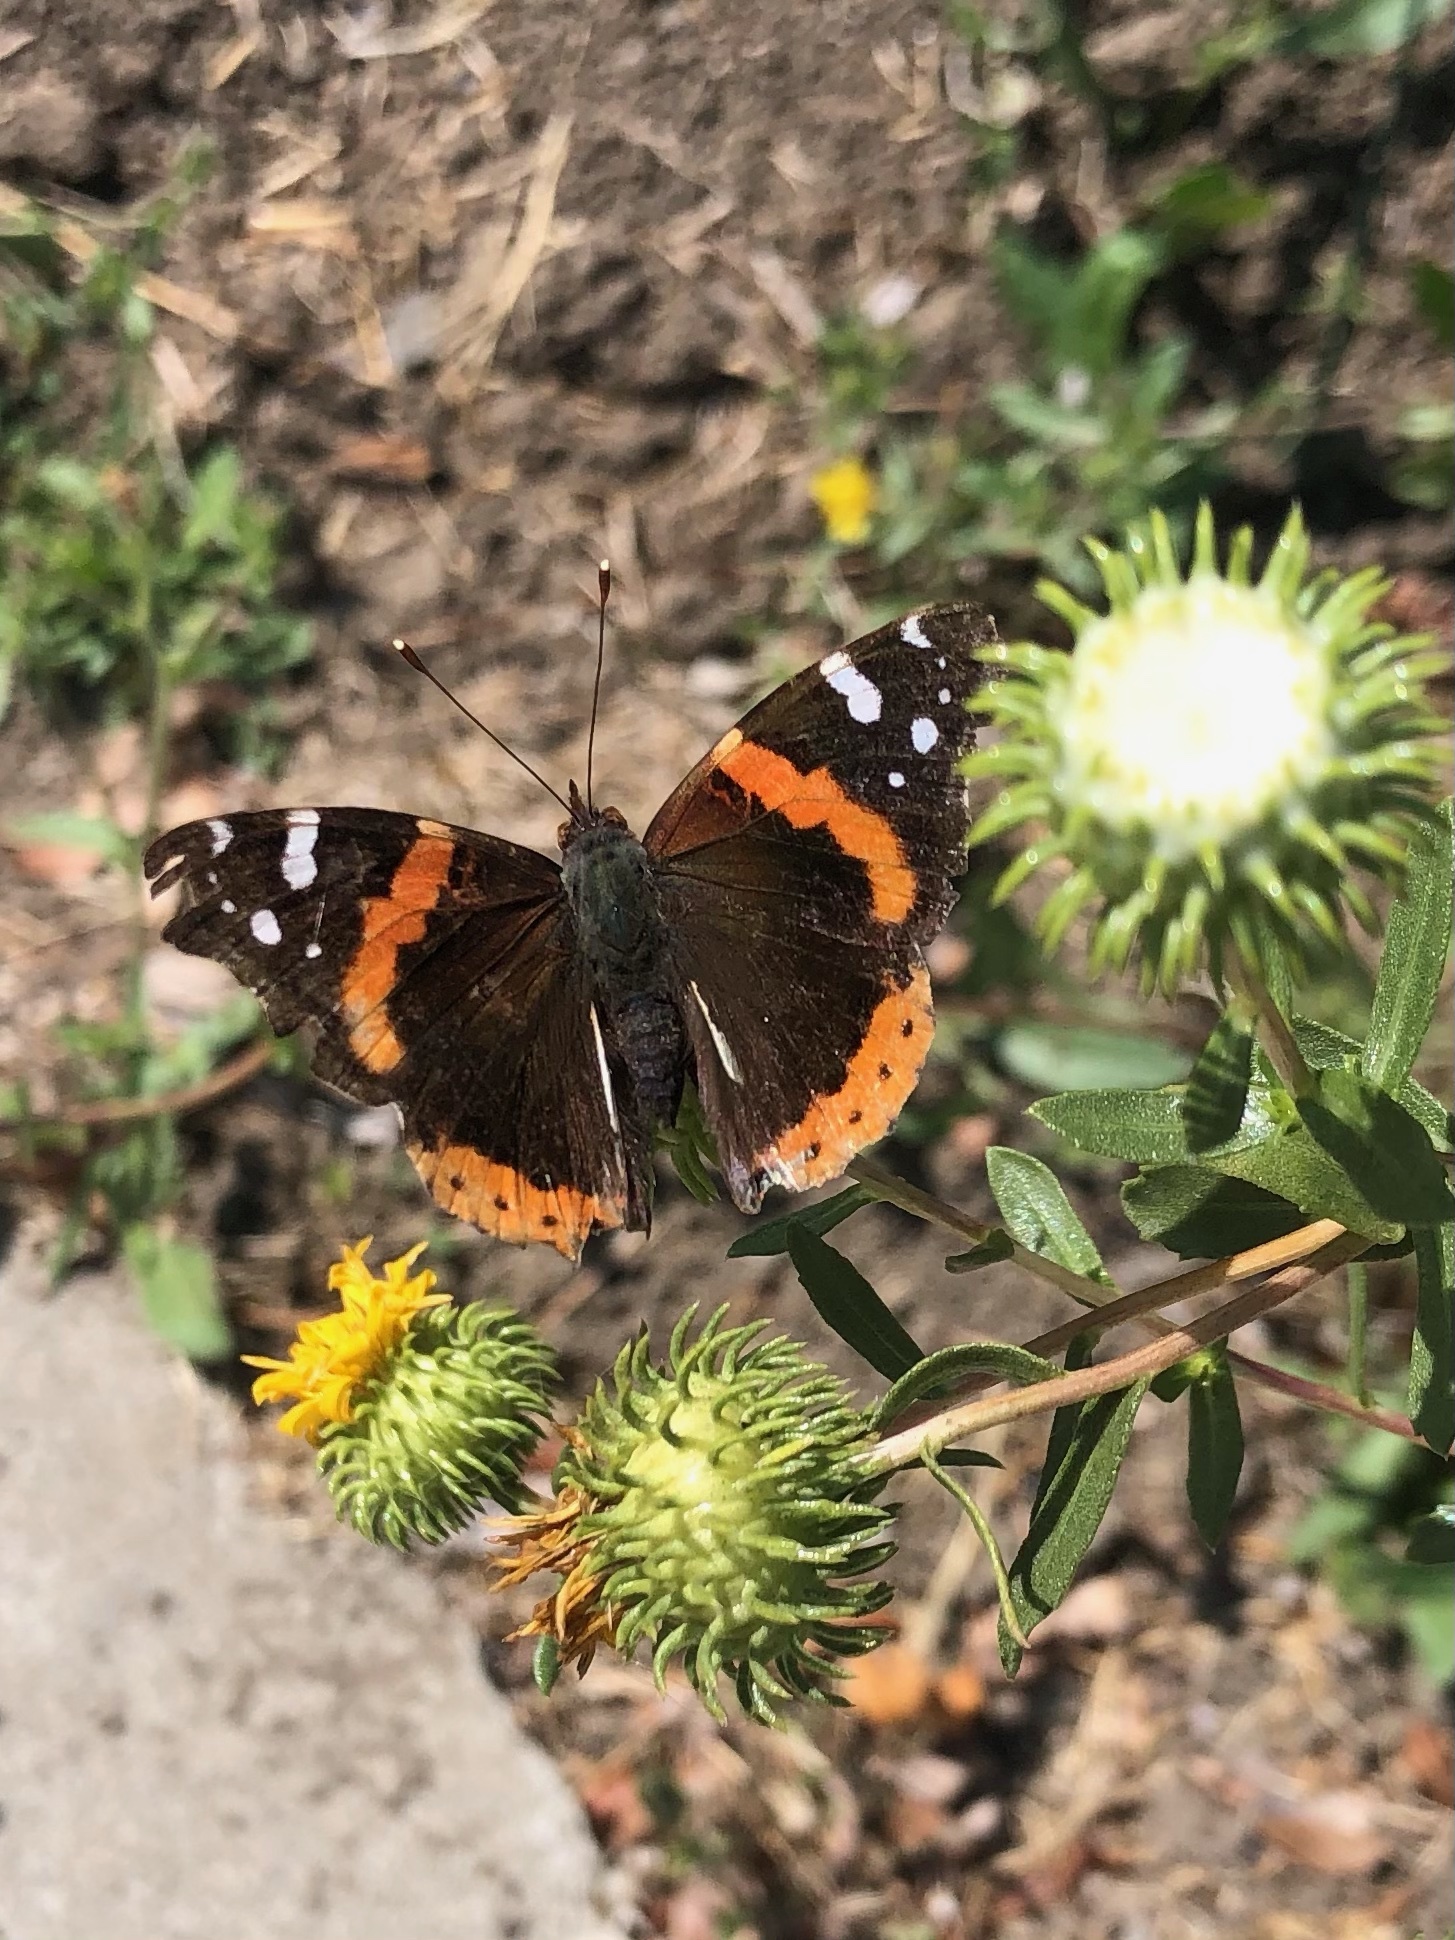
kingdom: Animalia
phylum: Arthropoda
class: Insecta
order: Lepidoptera
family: Nymphalidae
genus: Vanessa
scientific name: Vanessa atalanta
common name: Red admiral
